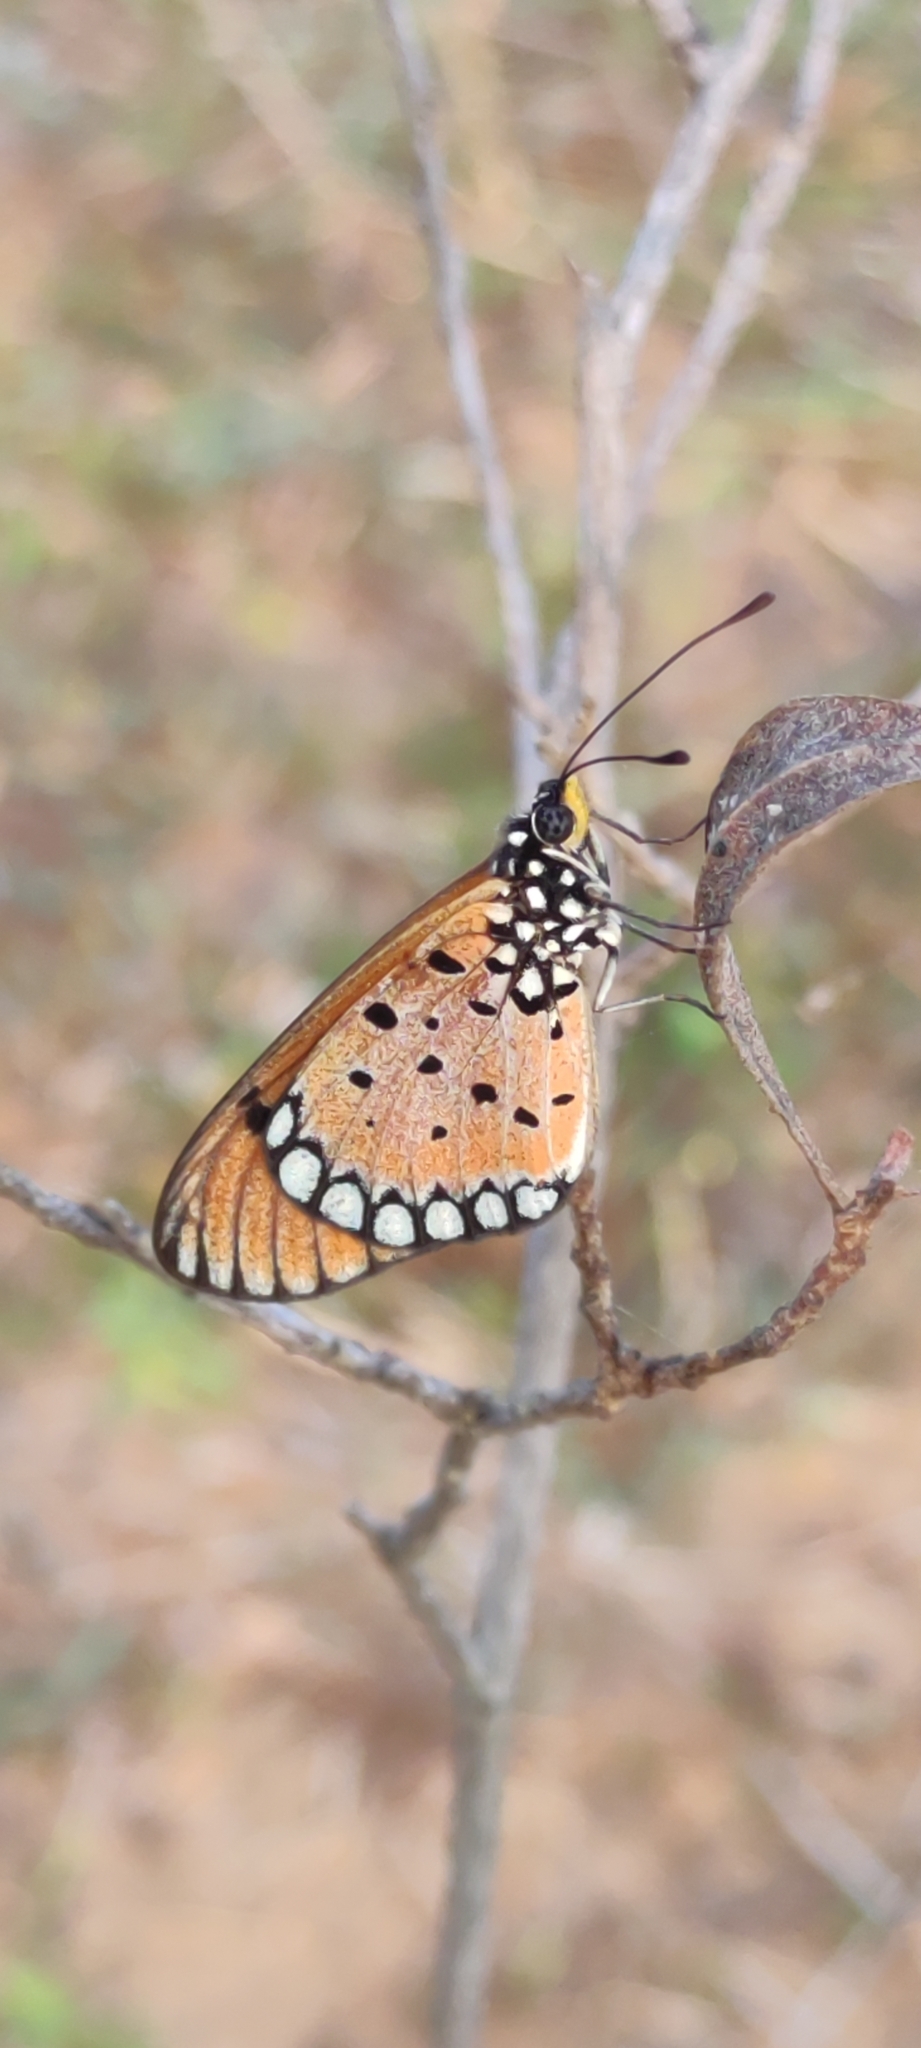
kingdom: Animalia
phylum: Arthropoda
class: Insecta
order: Lepidoptera
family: Nymphalidae
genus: Acraea
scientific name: Acraea terpsicore
